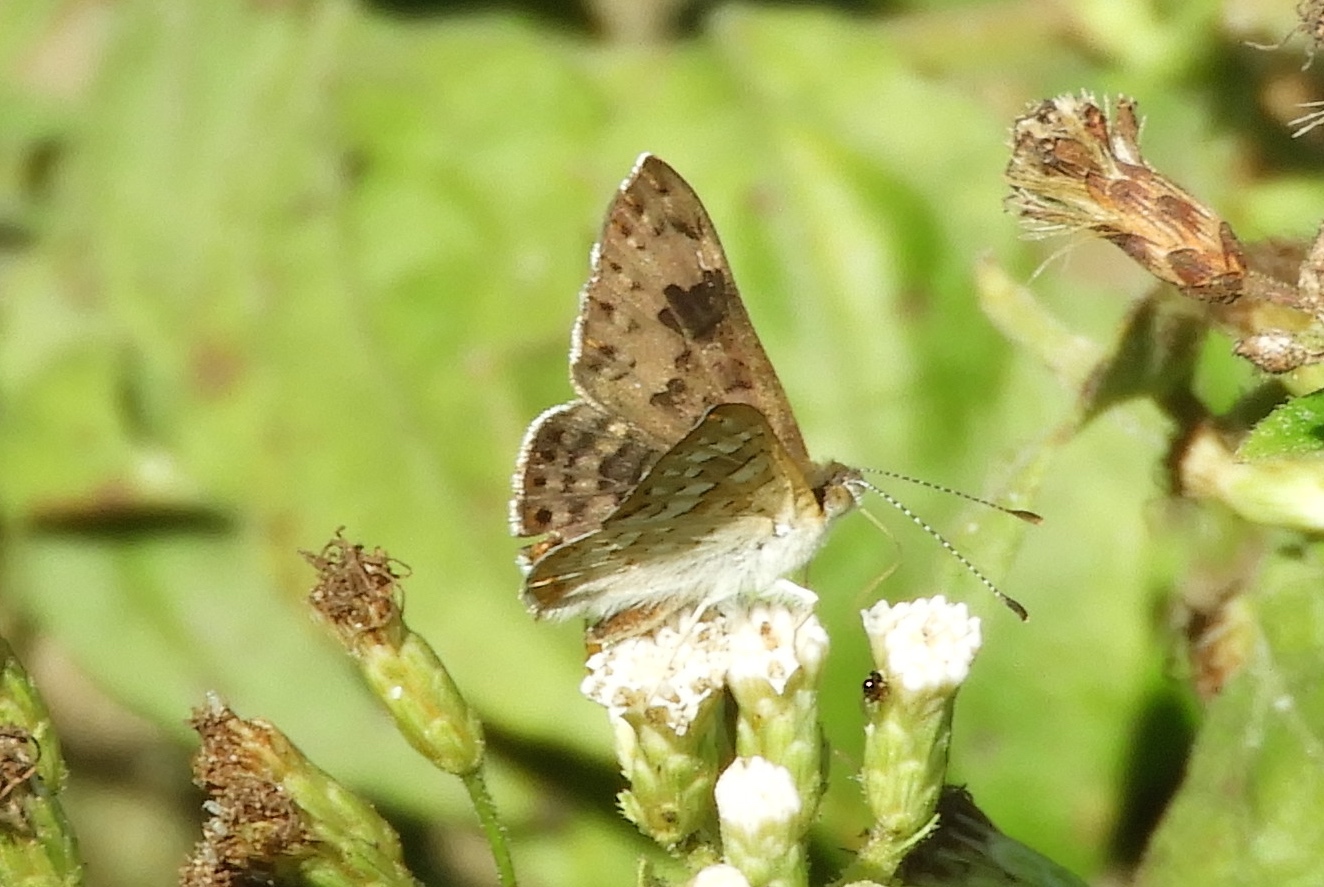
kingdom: Animalia
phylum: Arthropoda
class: Insecta
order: Lepidoptera
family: Riodinidae
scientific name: Riodinidae
